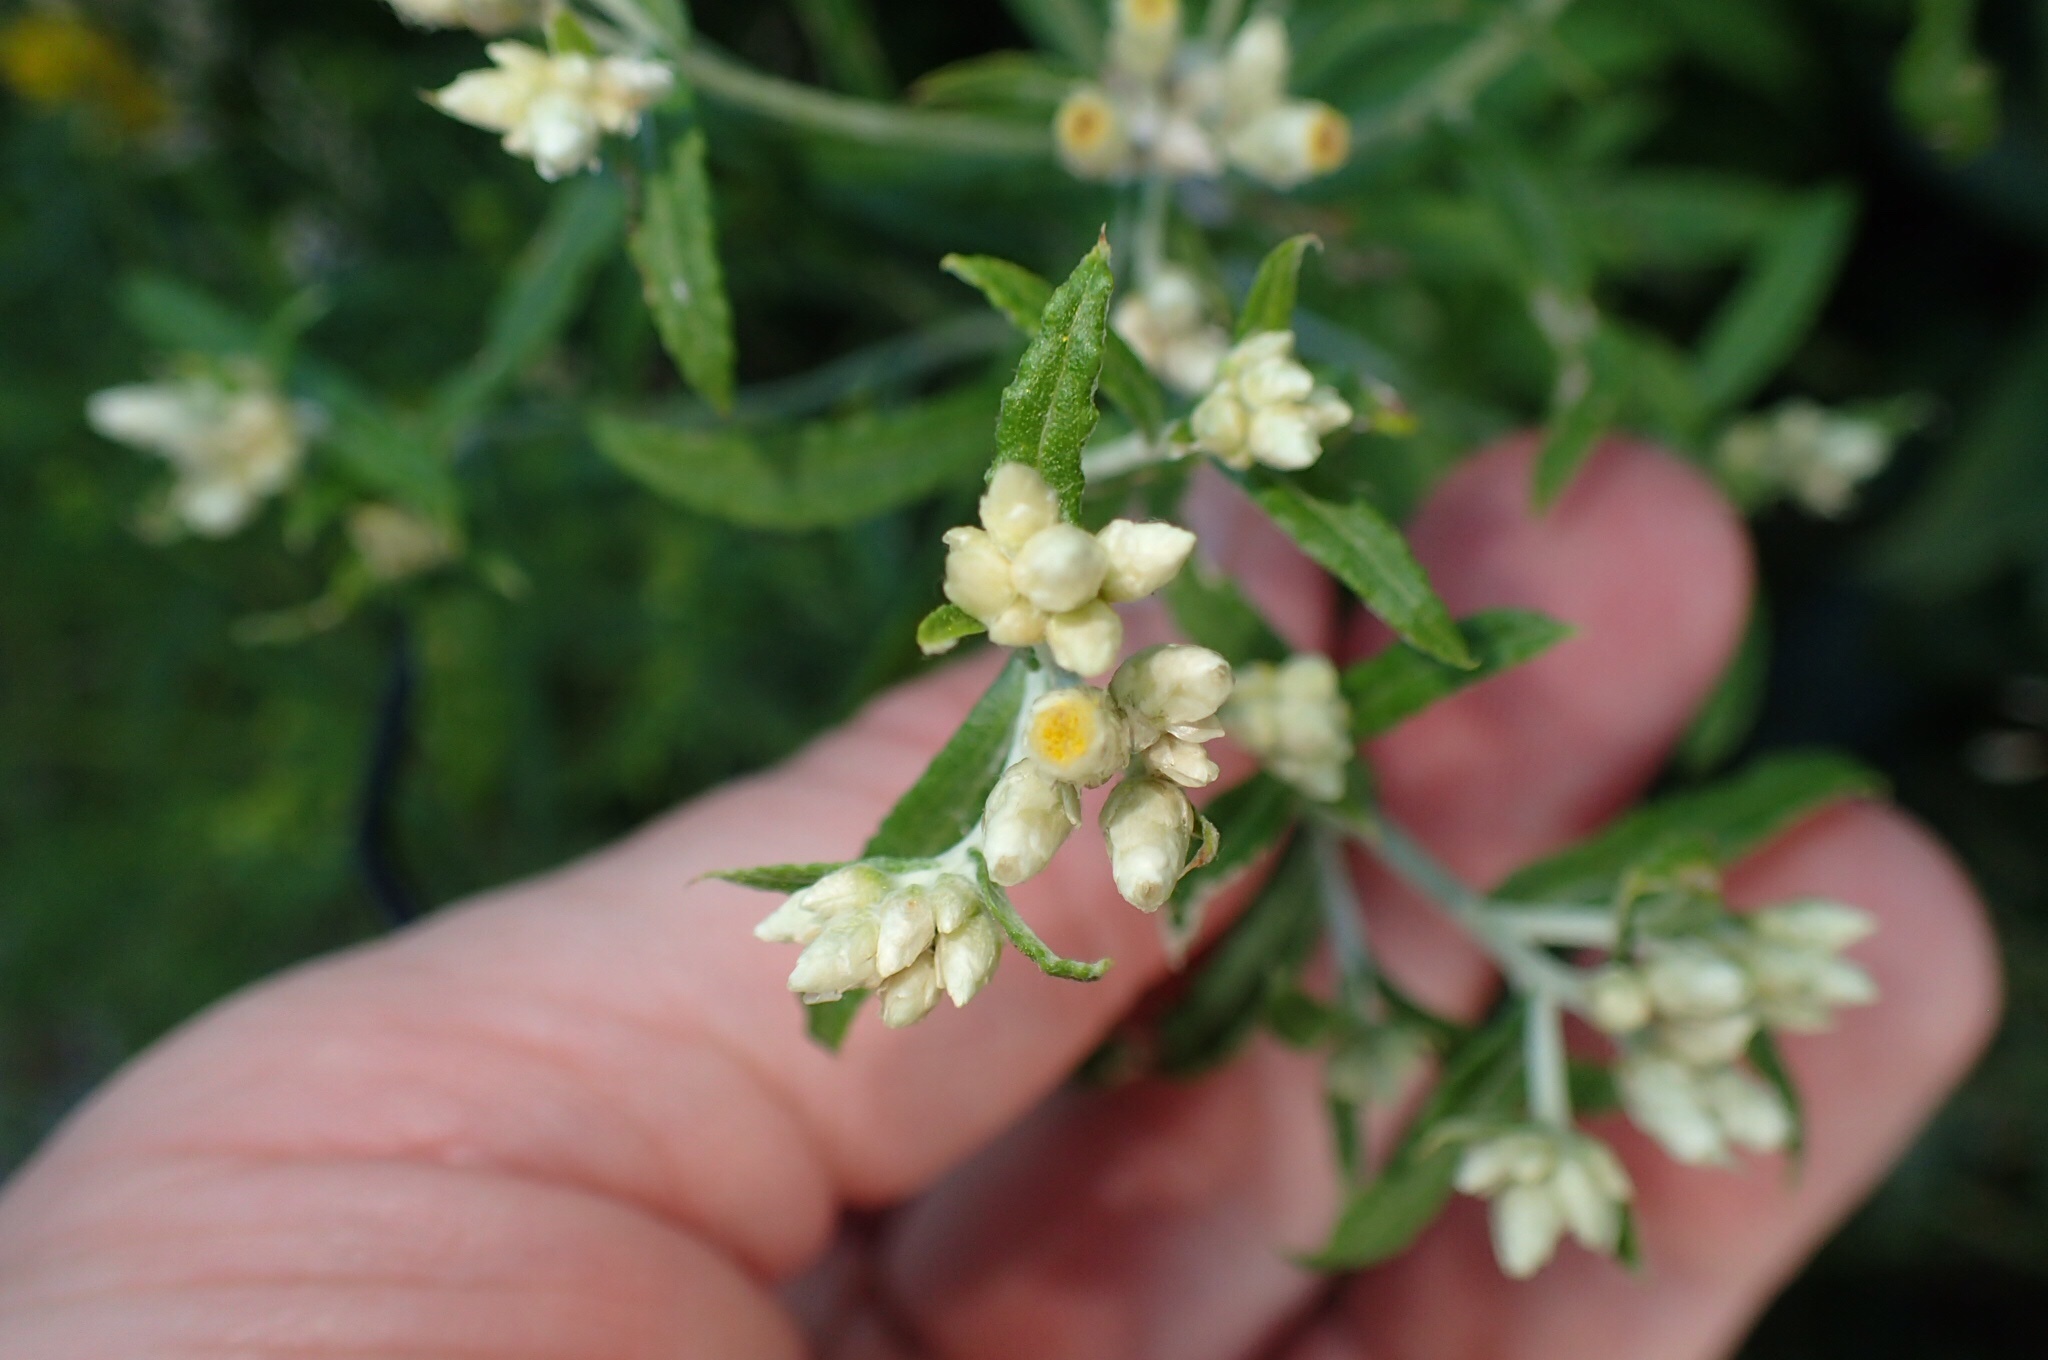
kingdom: Plantae
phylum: Tracheophyta
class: Magnoliopsida
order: Asterales
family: Asteraceae
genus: Pseudognaphalium
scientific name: Pseudognaphalium obtusifolium
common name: Eastern rabbit-tobacco
